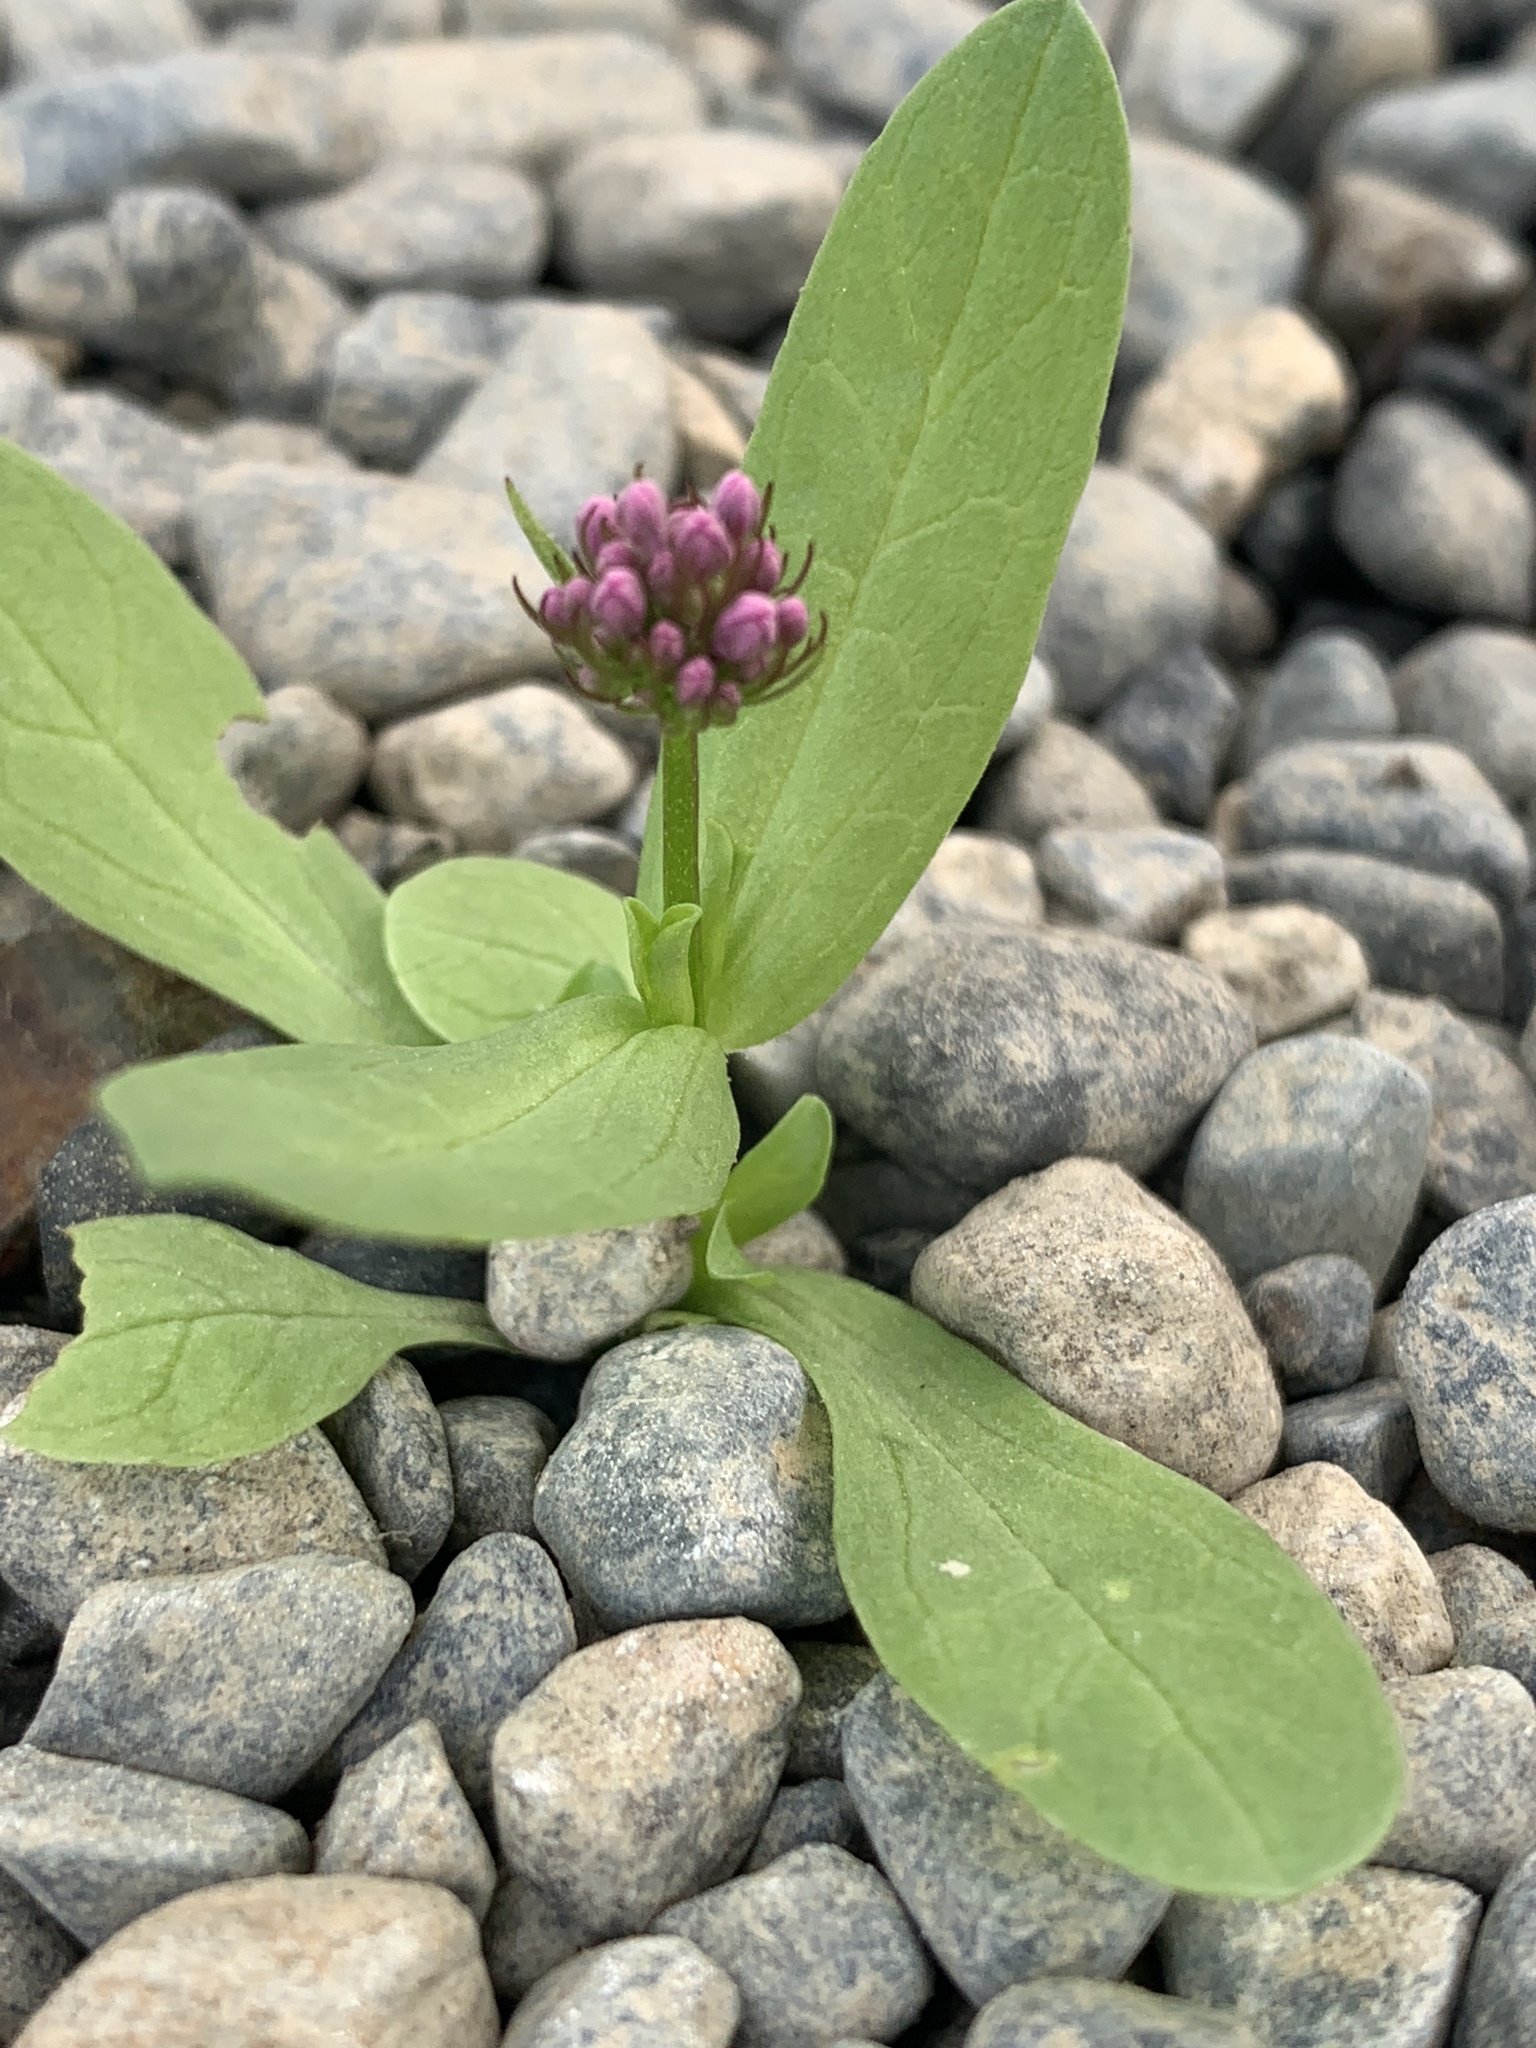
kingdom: Plantae
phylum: Tracheophyta
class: Magnoliopsida
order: Dipsacales
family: Caprifoliaceae
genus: Plectritis
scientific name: Plectritis congesta
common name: Pink plectritis
